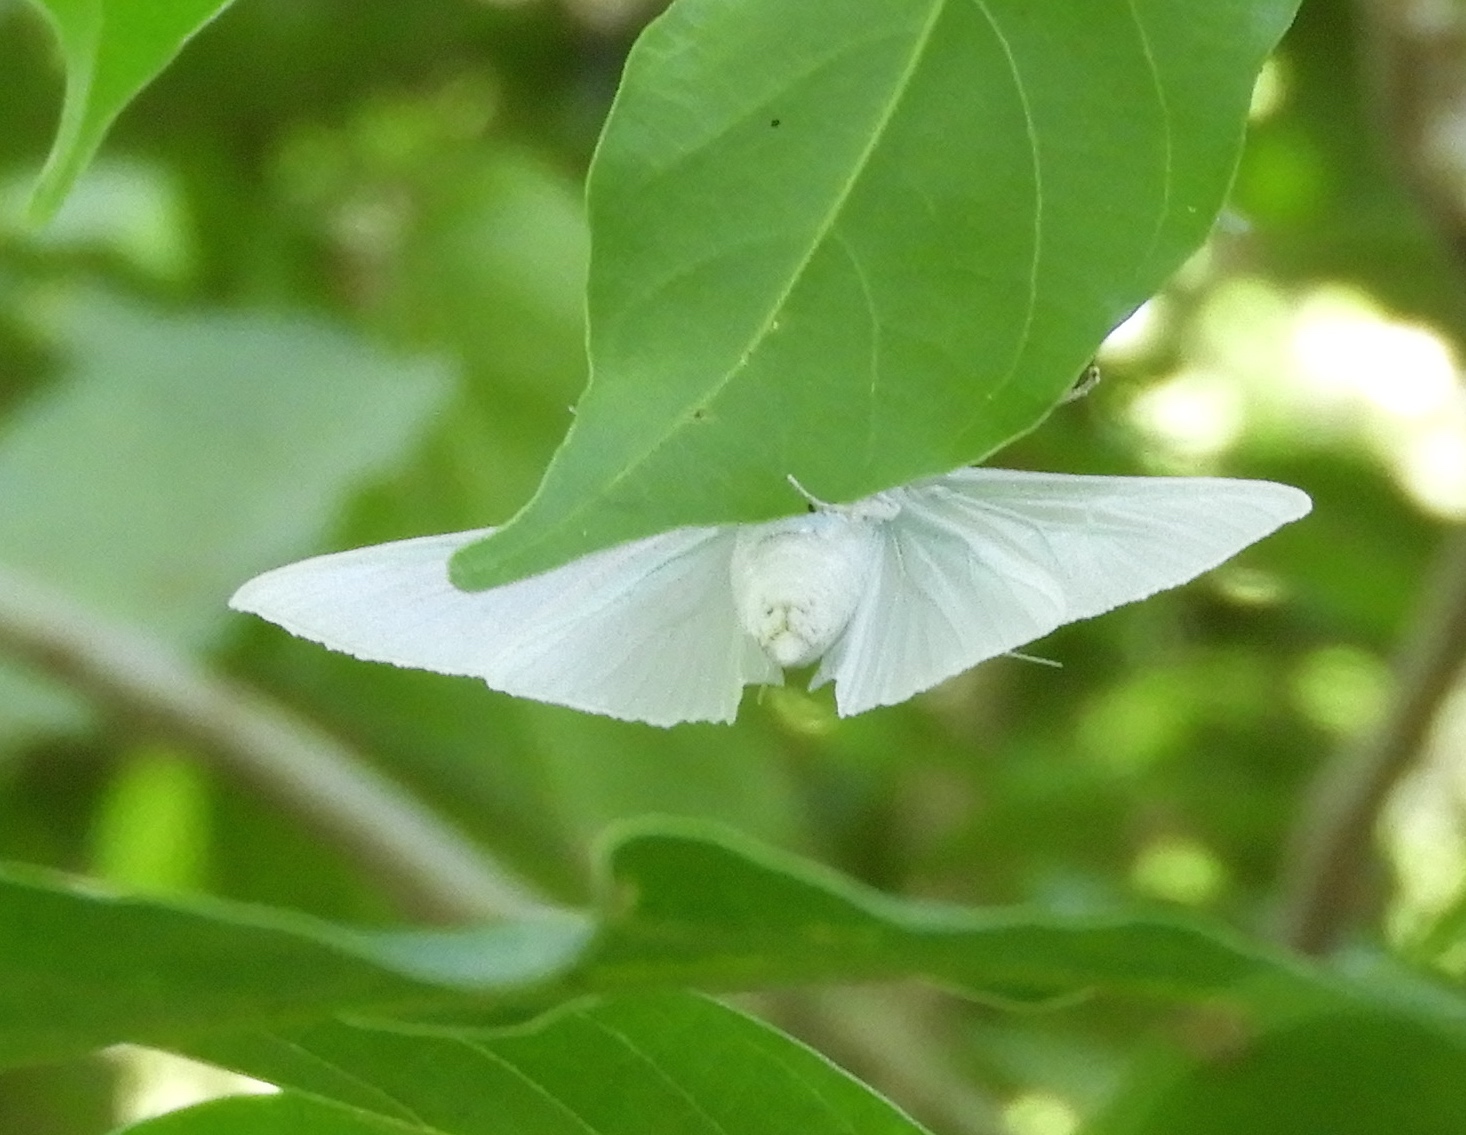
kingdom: Animalia
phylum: Arthropoda
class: Insecta
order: Lepidoptera
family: Crambidae
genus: Palpita
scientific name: Palpita flegia
